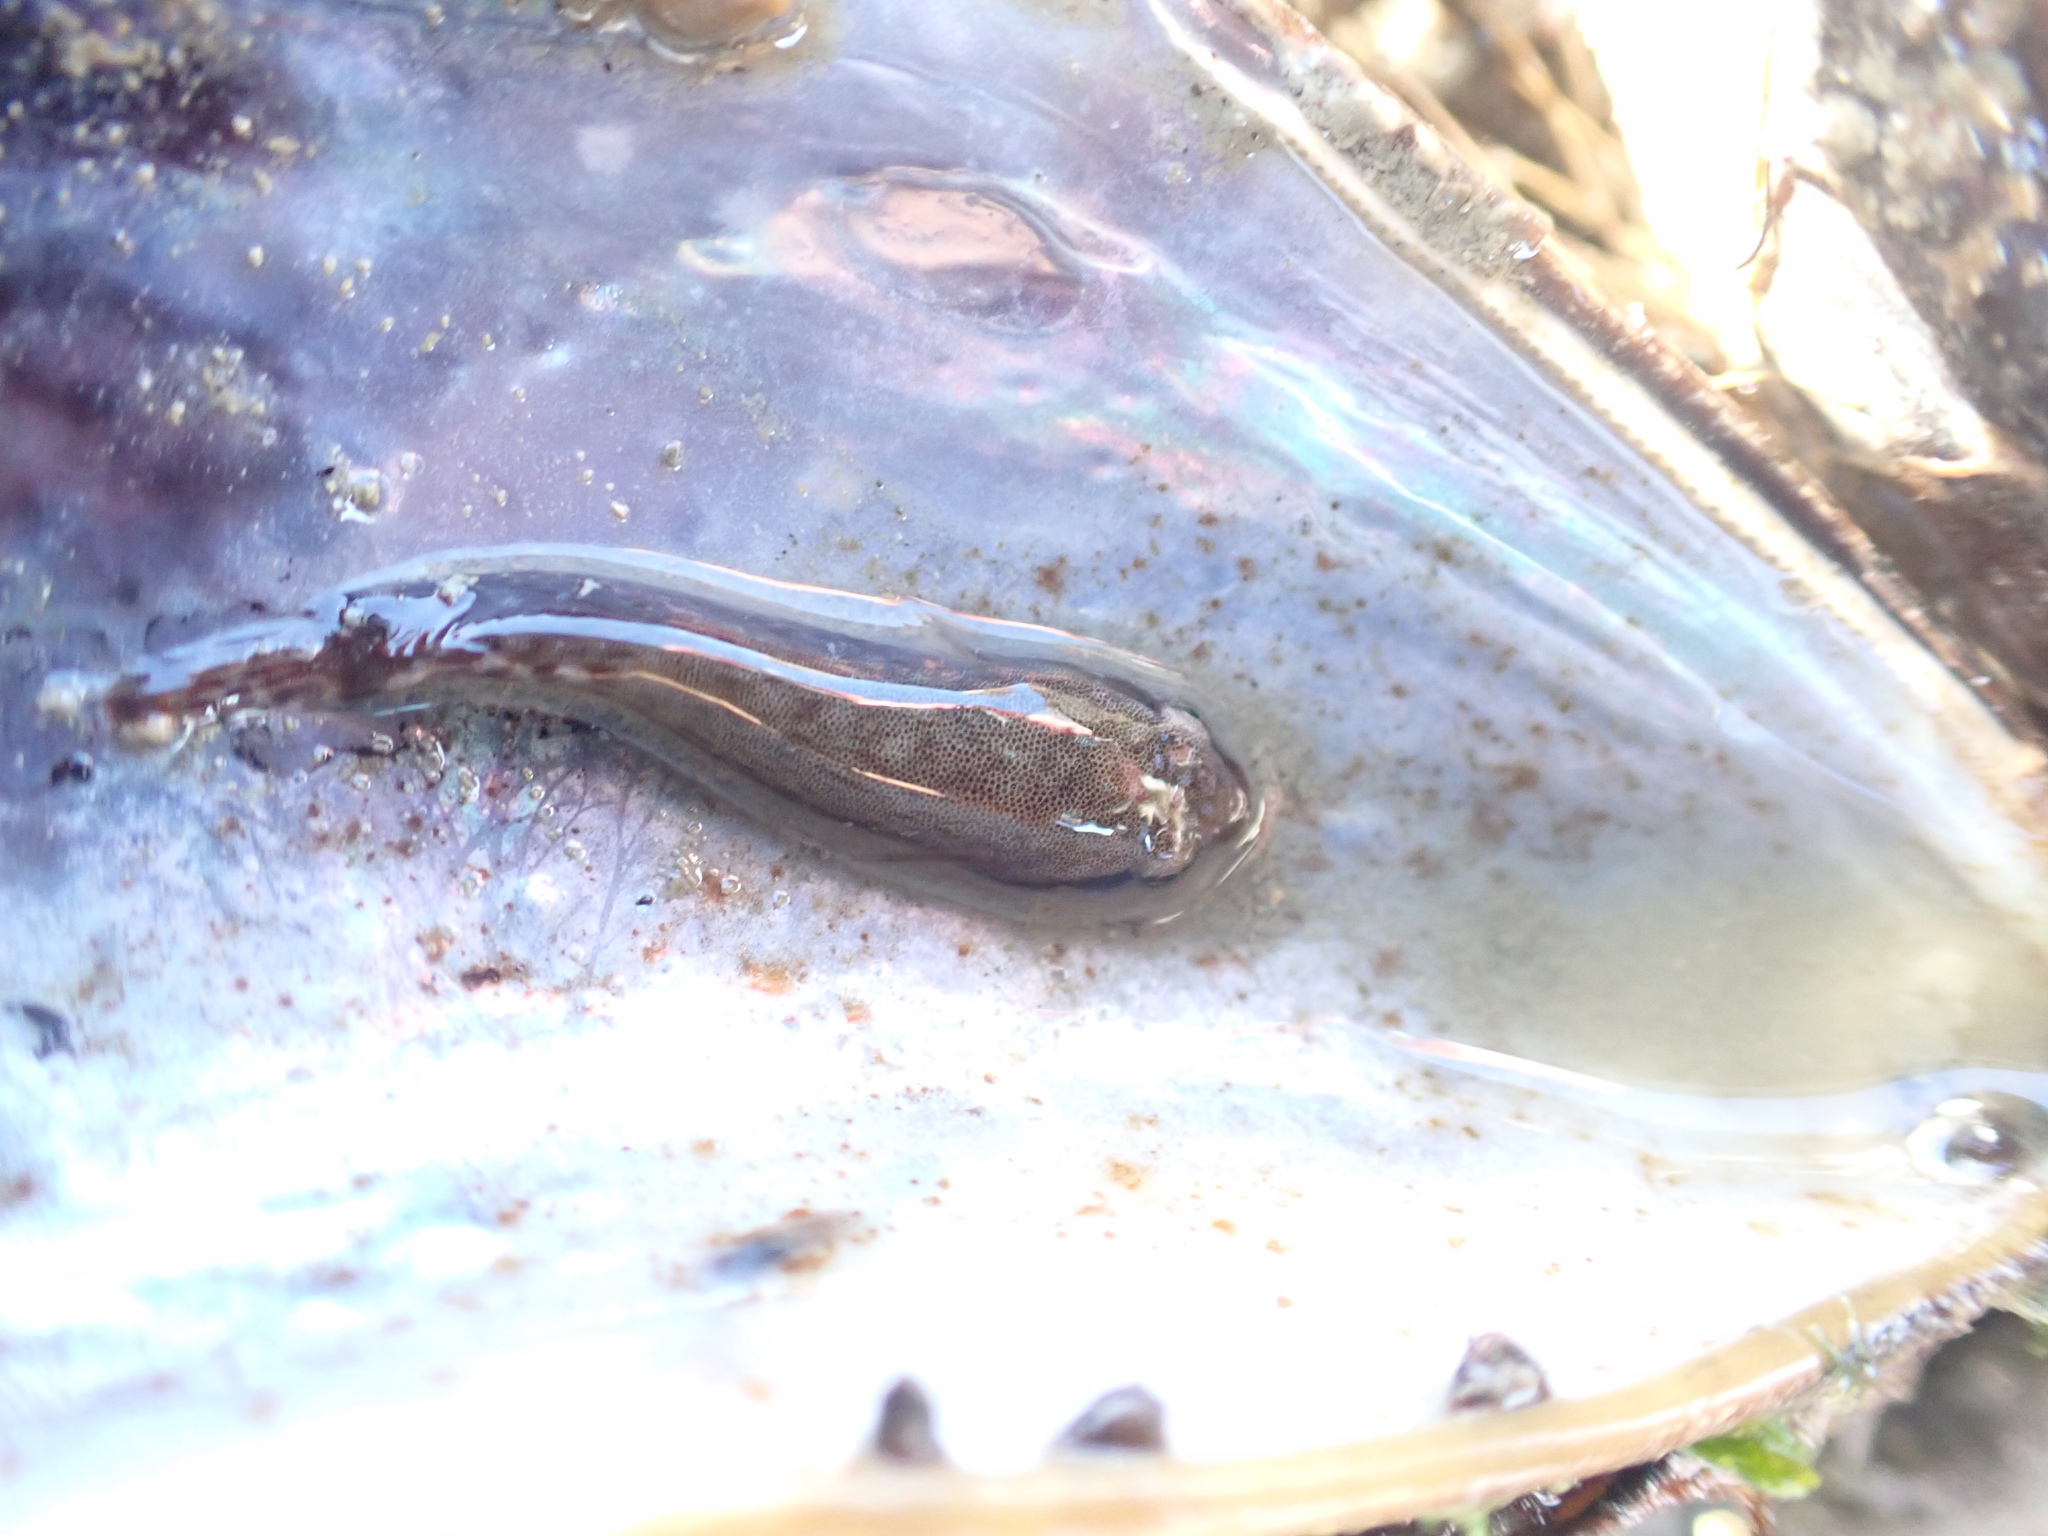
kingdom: Animalia
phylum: Chordata
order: Gobiesociformes
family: Gobiesocidae
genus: Trachelochismus
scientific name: Trachelochismus aestuarium
